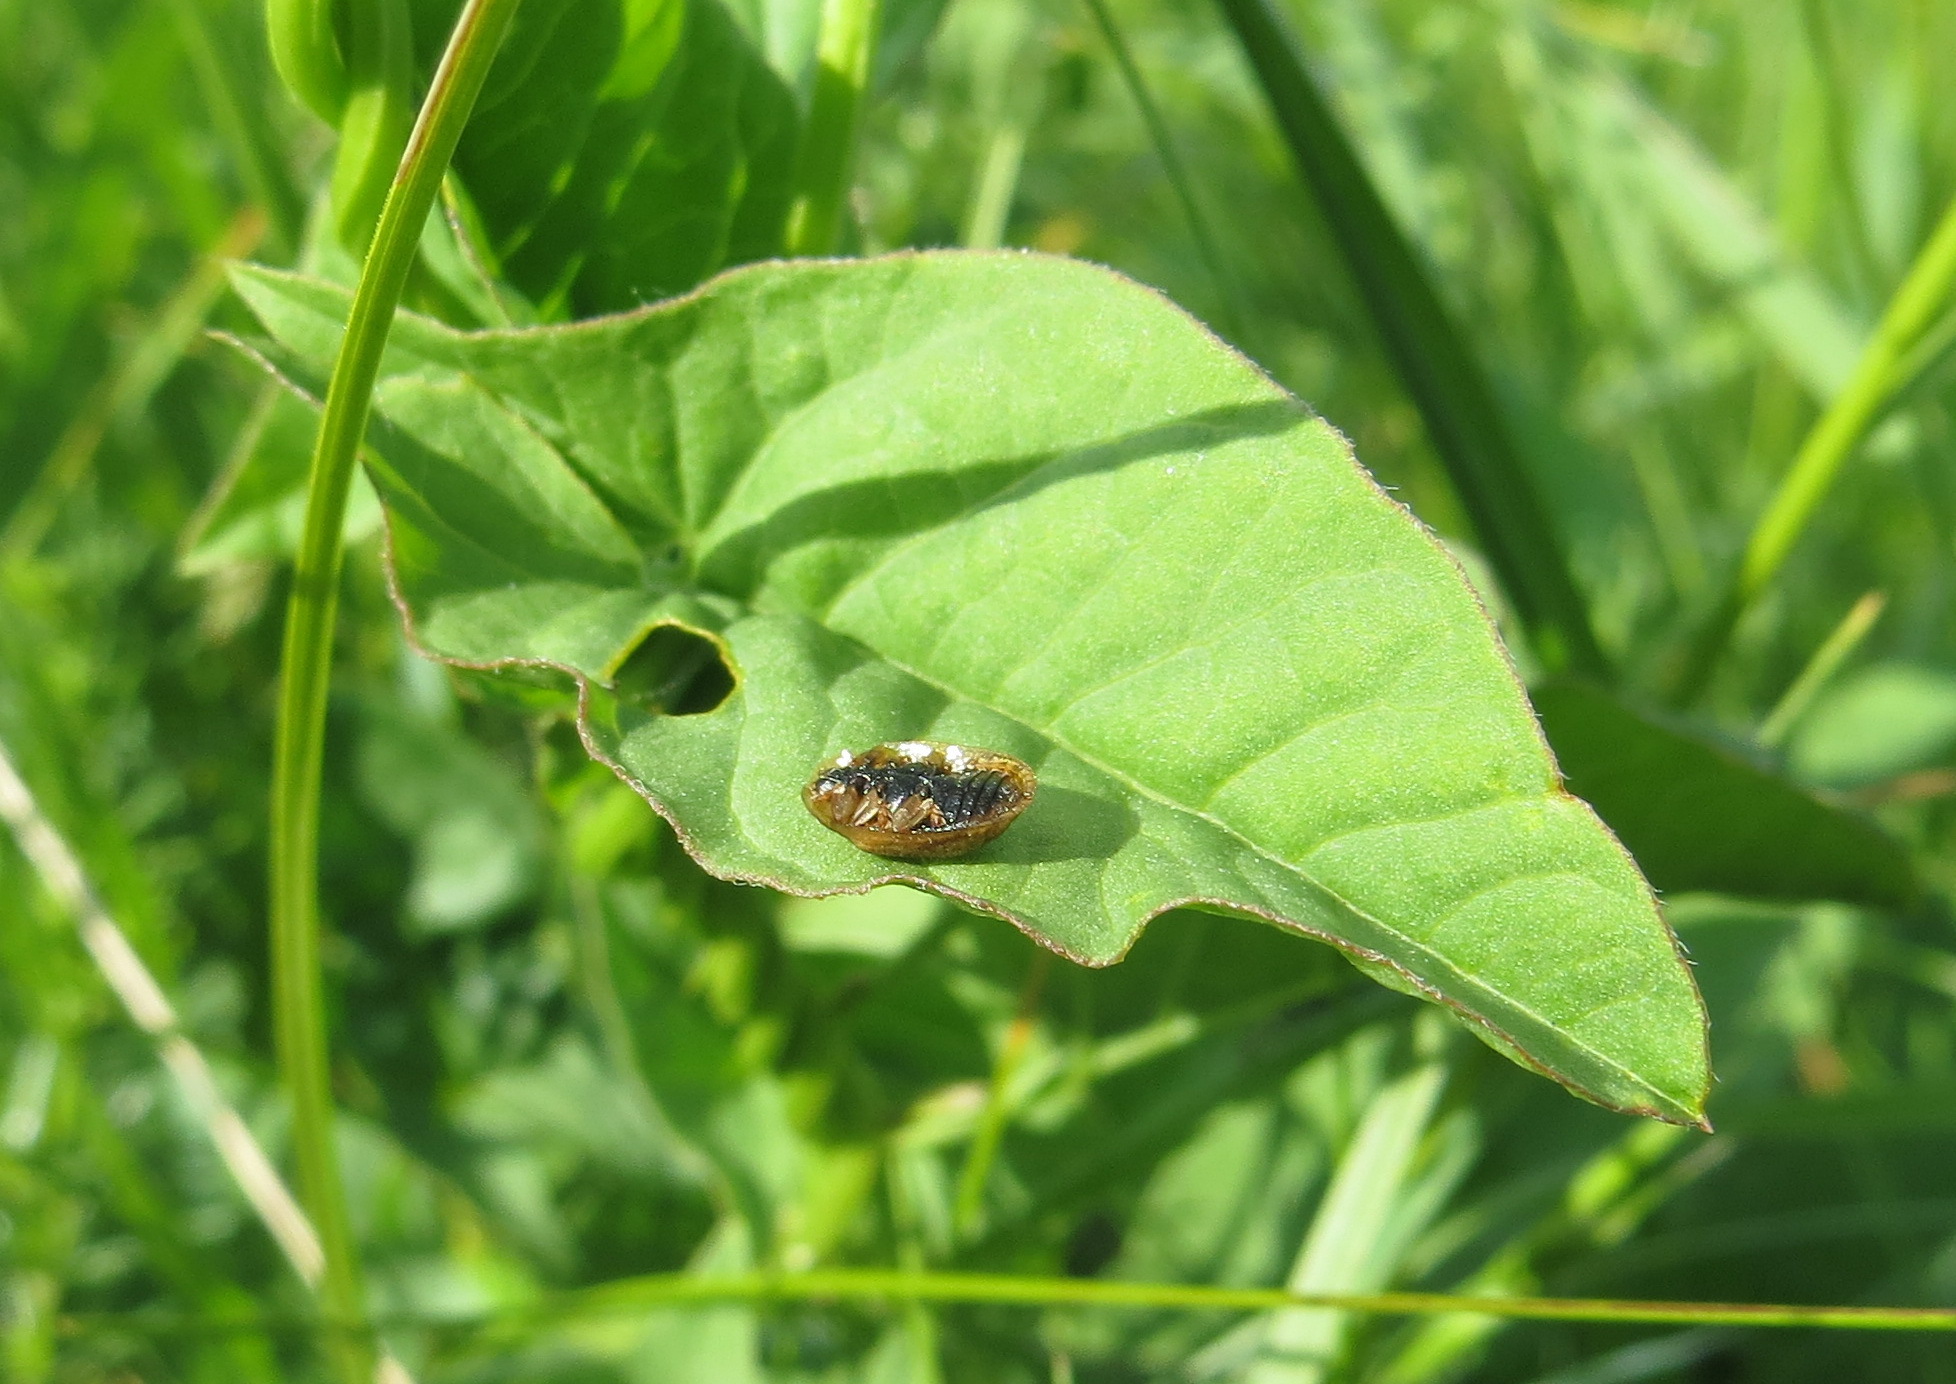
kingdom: Animalia
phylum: Arthropoda
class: Insecta
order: Coleoptera
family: Chrysomelidae
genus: Hypocassida
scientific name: Hypocassida subferruginea
